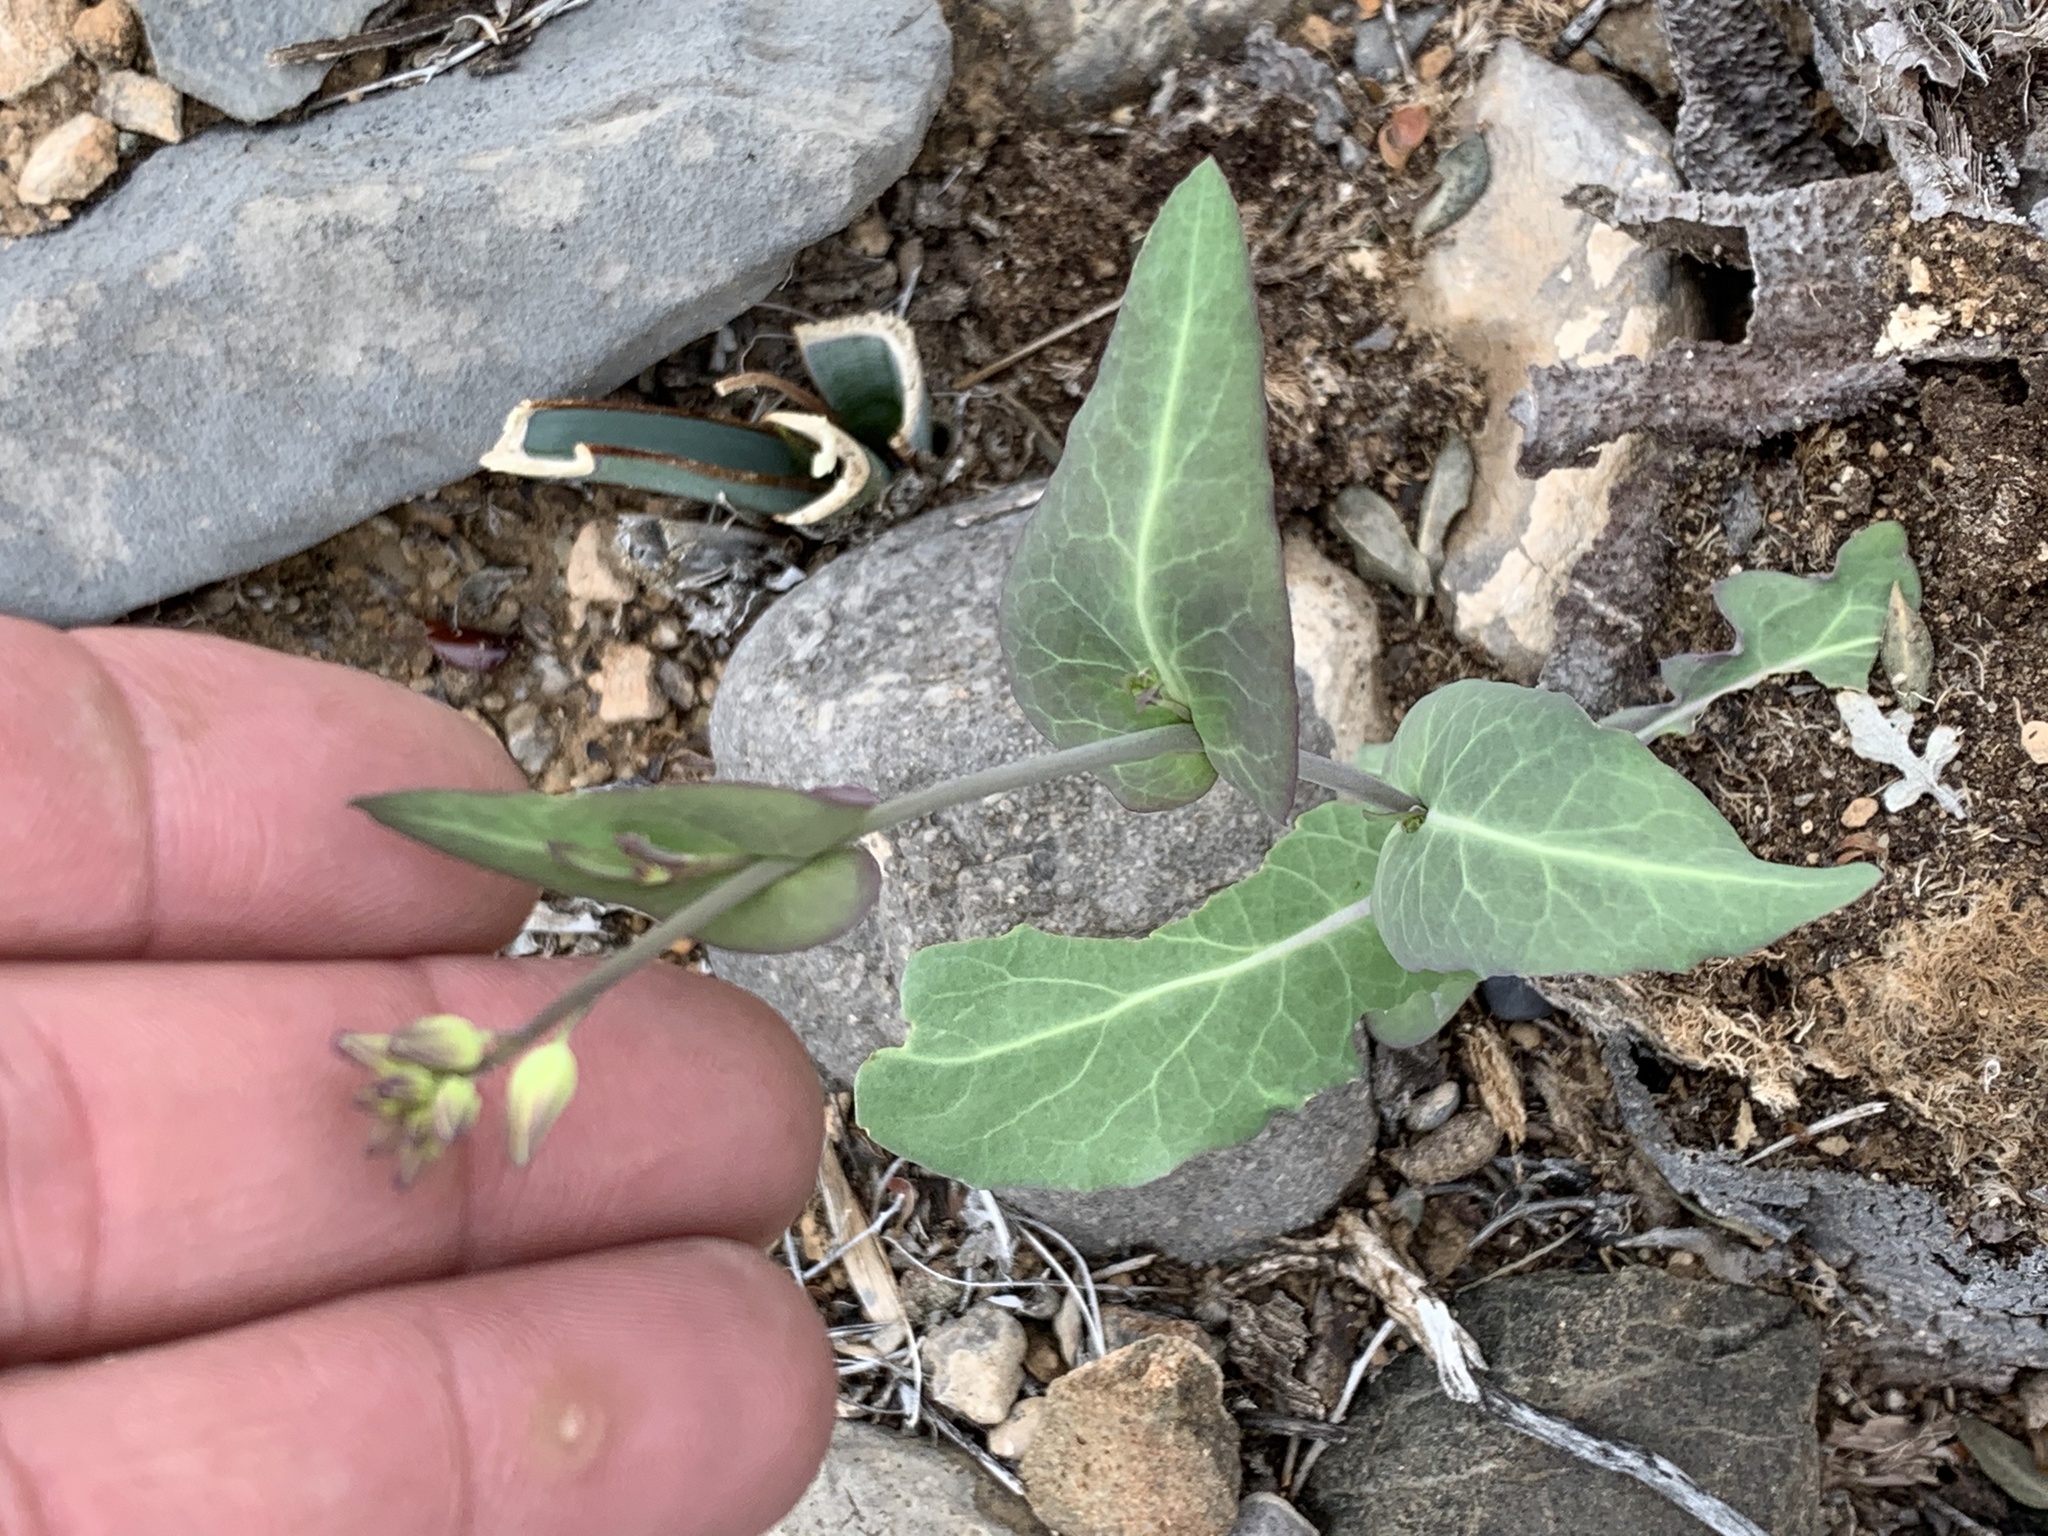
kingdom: Plantae
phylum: Tracheophyta
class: Magnoliopsida
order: Brassicales
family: Brassicaceae
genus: Streptanthus
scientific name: Streptanthus carinatus
